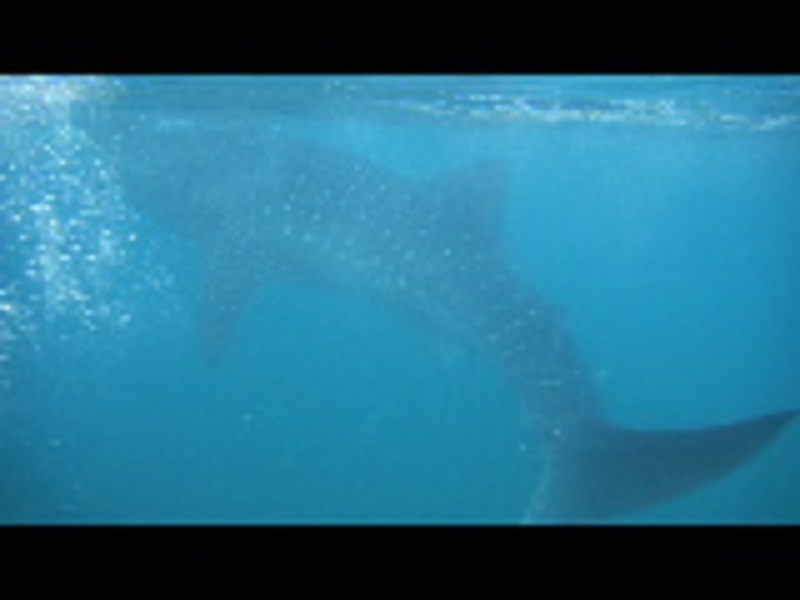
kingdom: Animalia
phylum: Chordata
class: Elasmobranchii
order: Orectolobiformes
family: Rhincodontidae
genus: Rhincodon
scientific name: Rhincodon typus
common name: Whale shark
